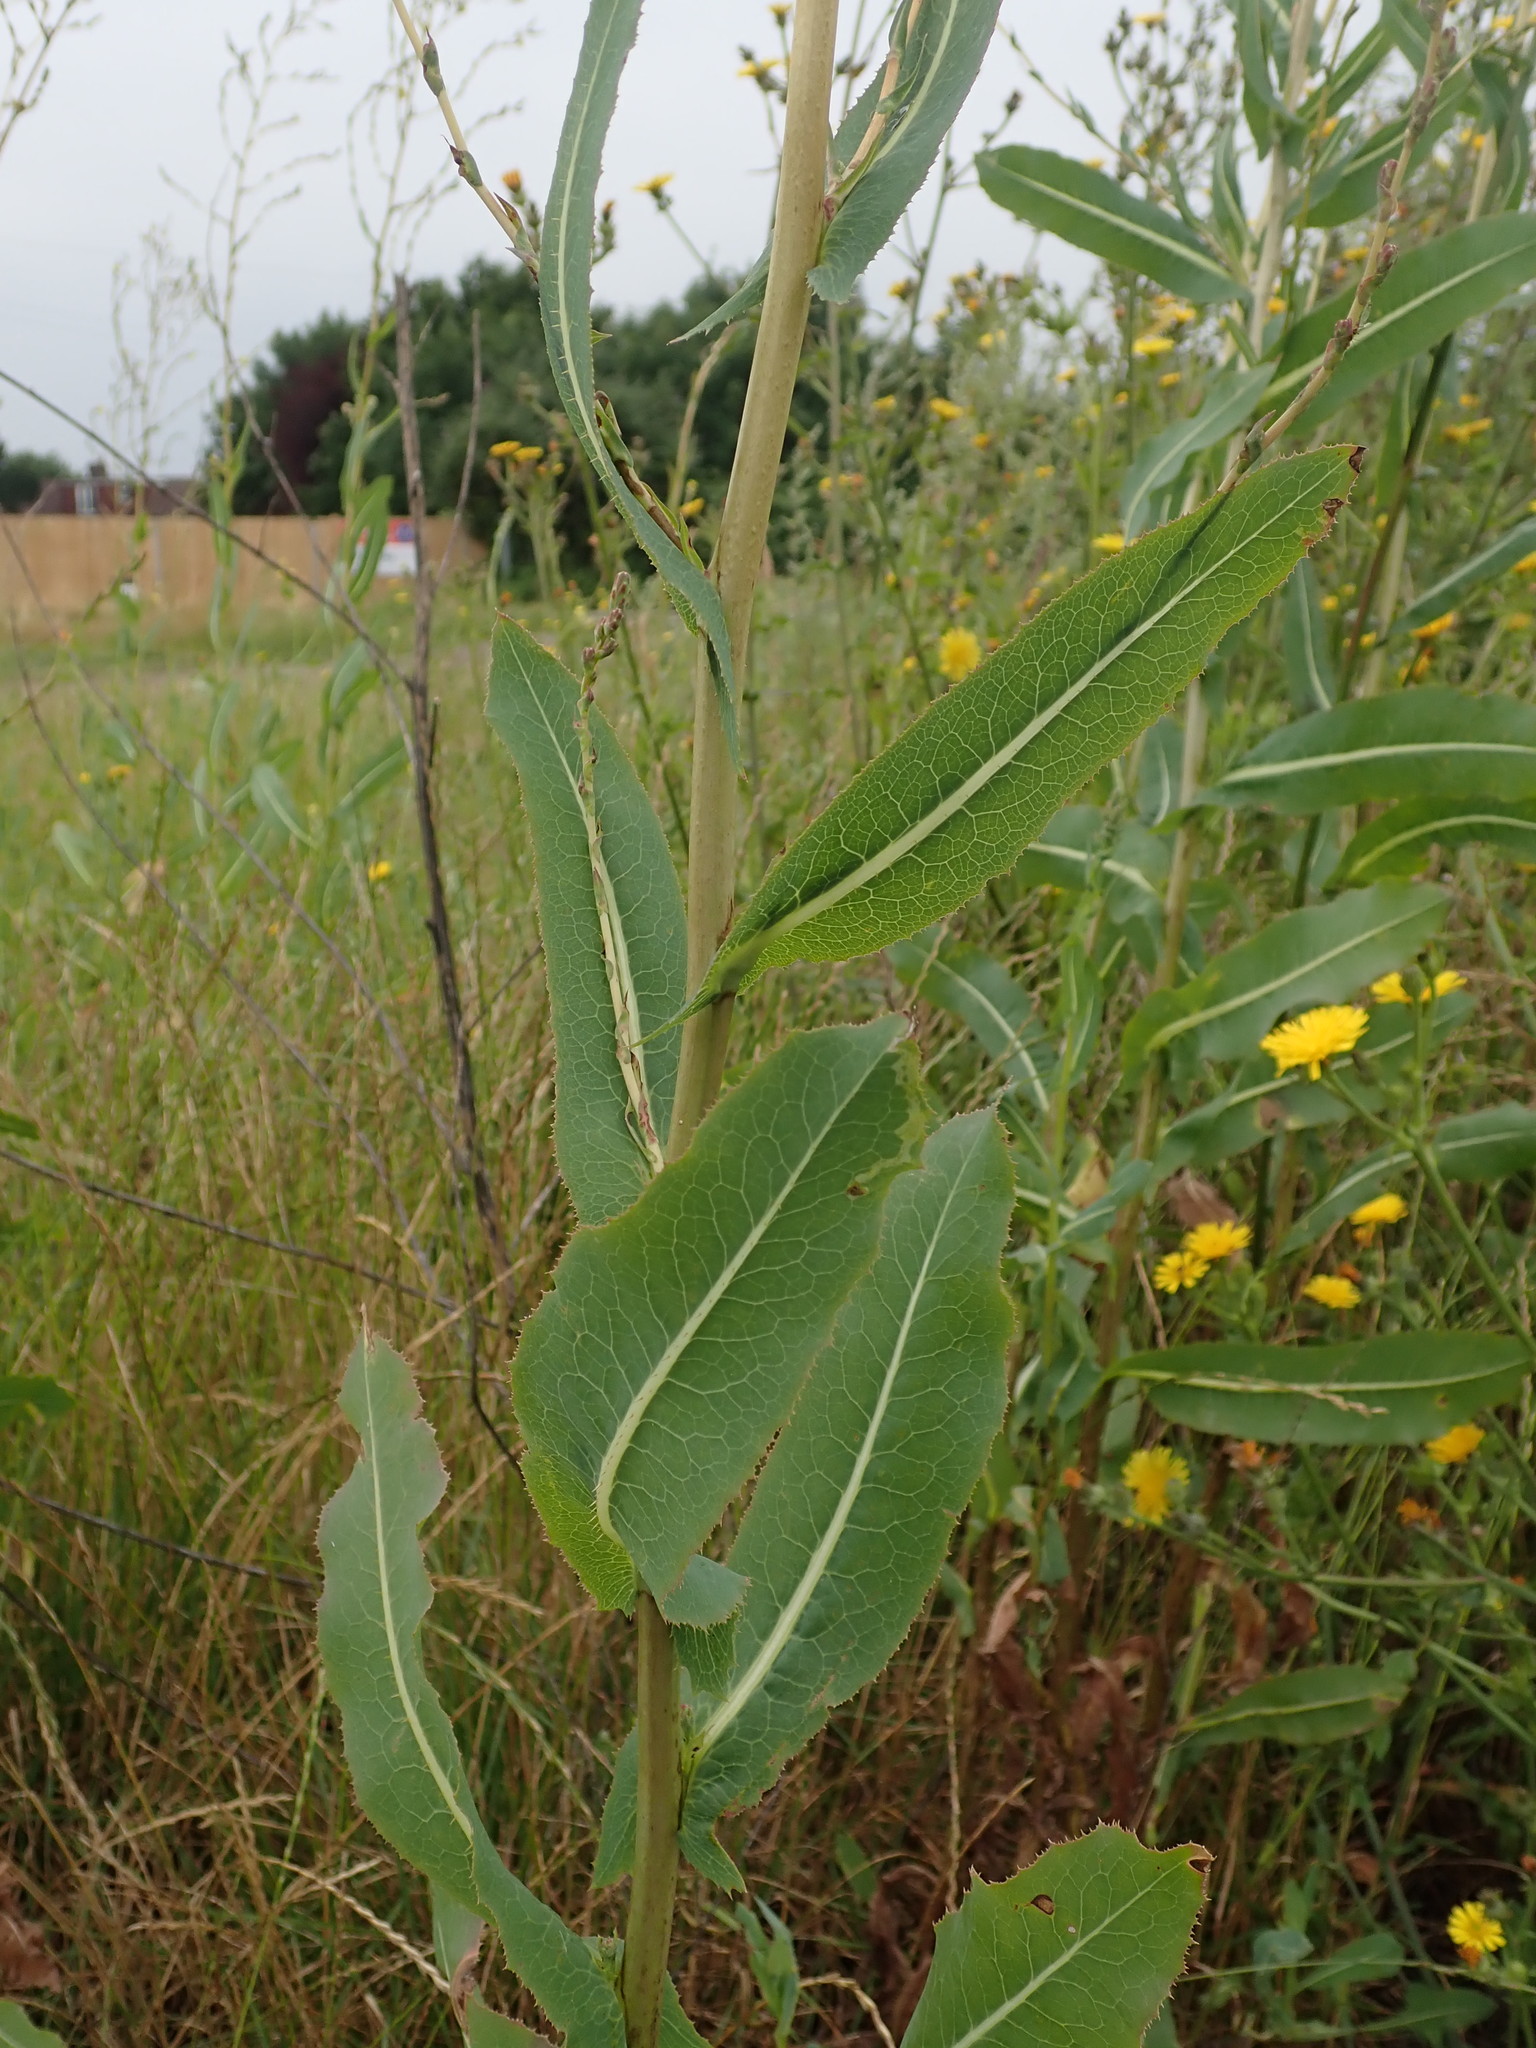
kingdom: Plantae
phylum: Tracheophyta
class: Magnoliopsida
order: Asterales
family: Asteraceae
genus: Lactuca
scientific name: Lactuca serriola
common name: Prickly lettuce
